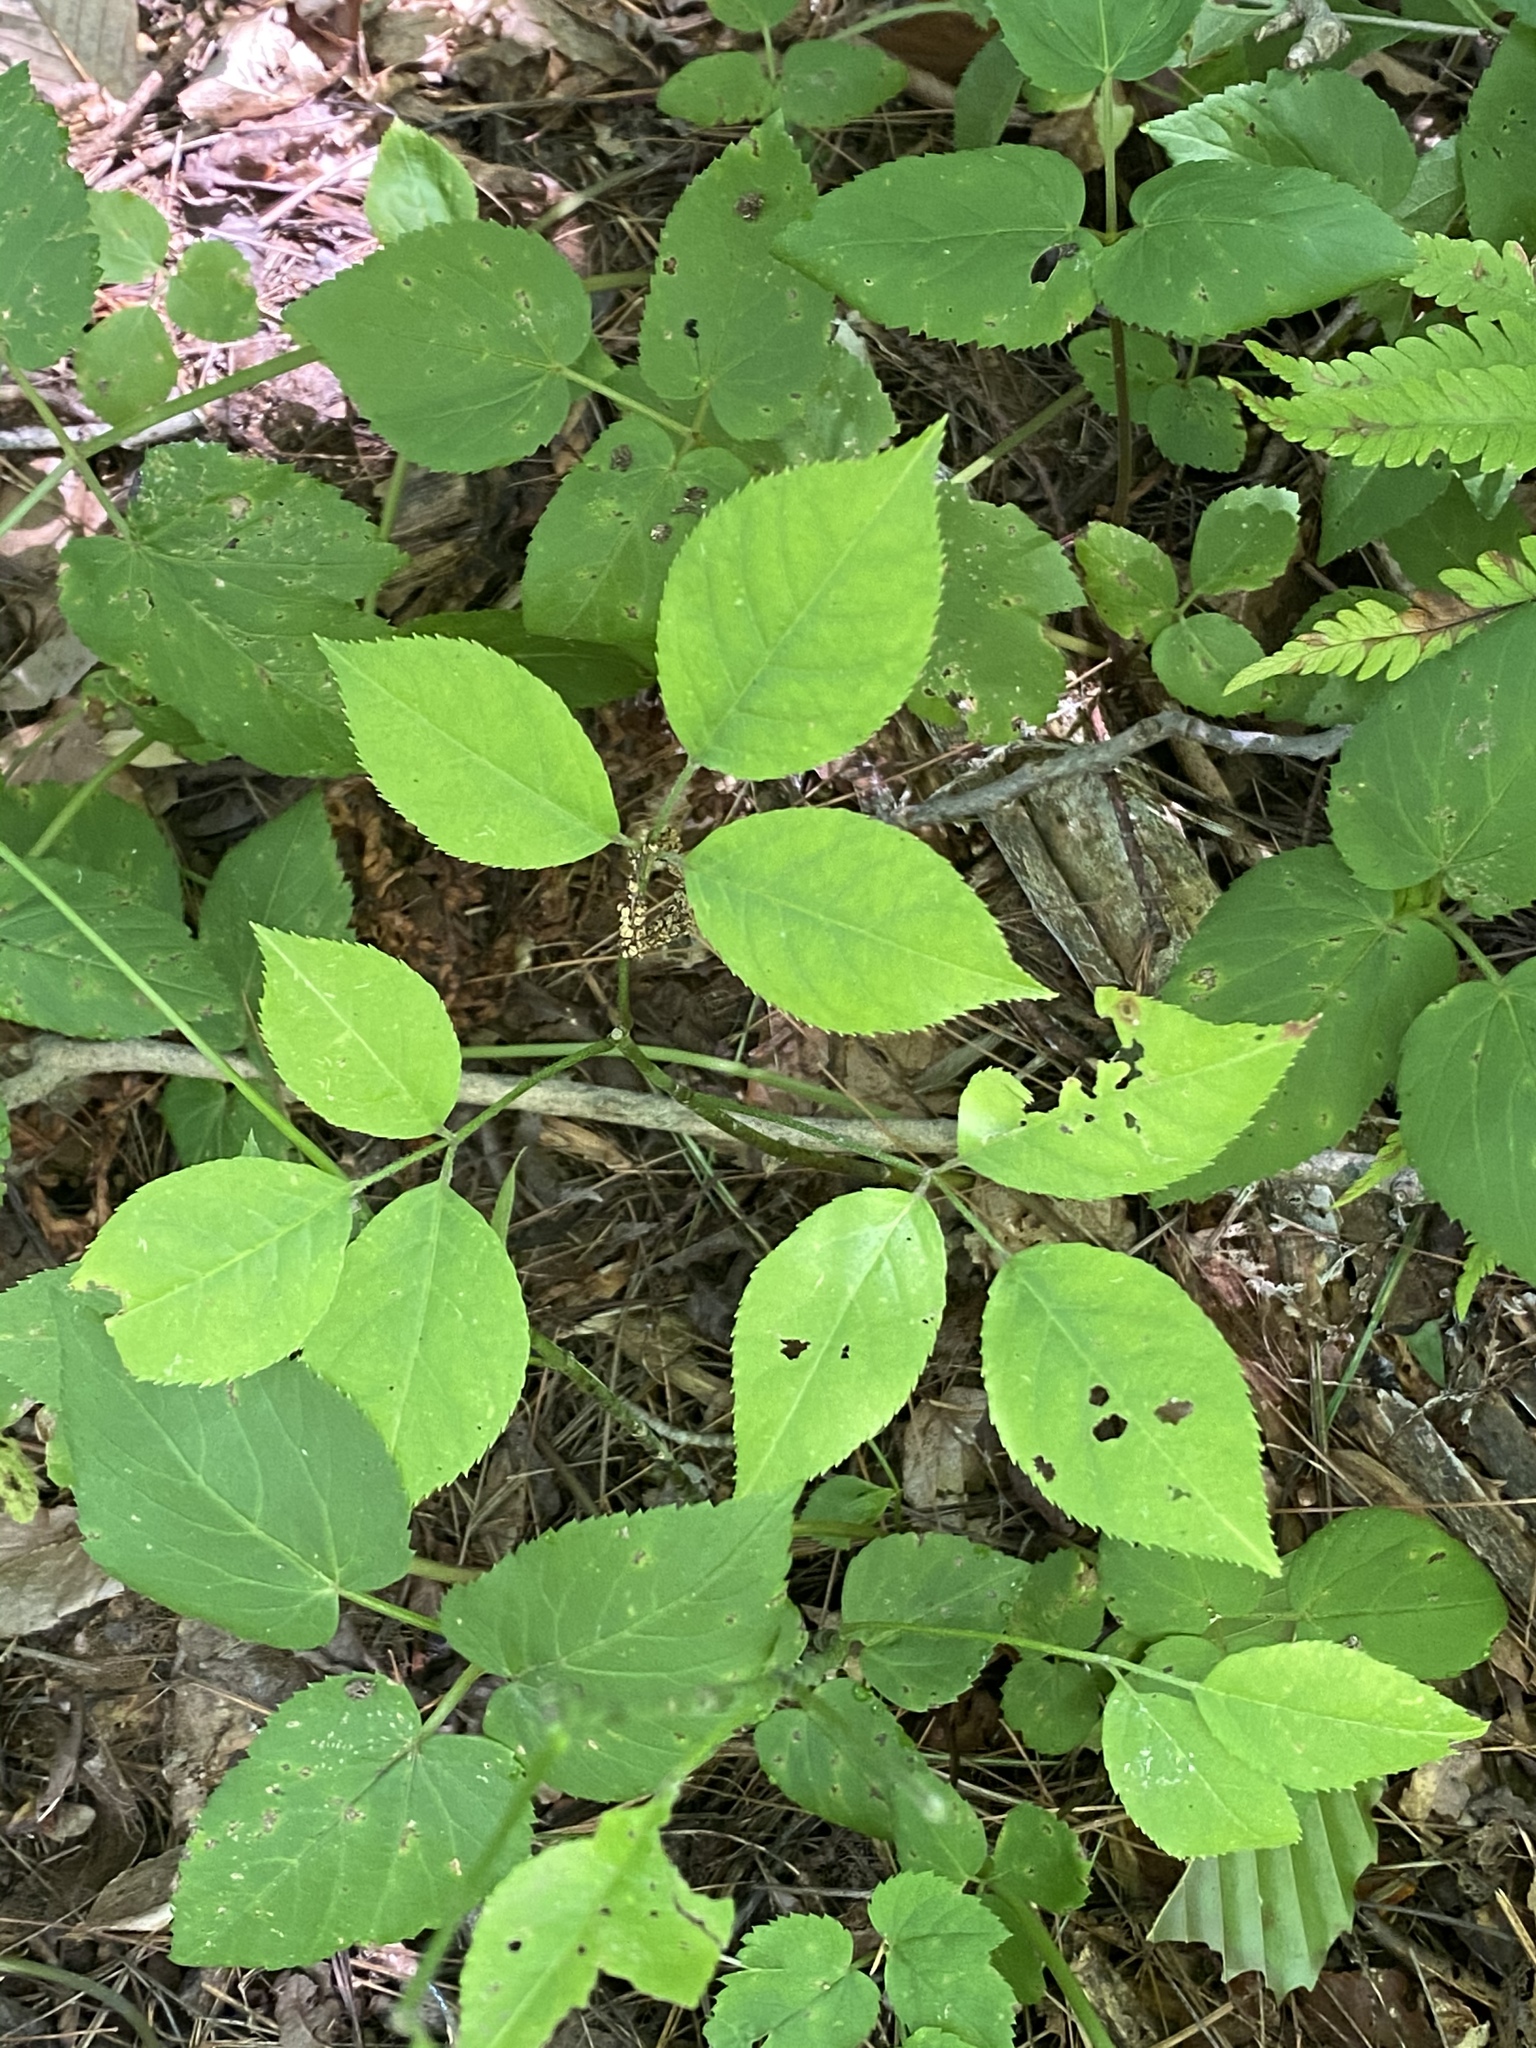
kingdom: Plantae
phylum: Tracheophyta
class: Magnoliopsida
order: Crossosomatales
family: Staphyleaceae
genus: Staphylea
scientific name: Staphylea trifolia
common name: American bladdernut
